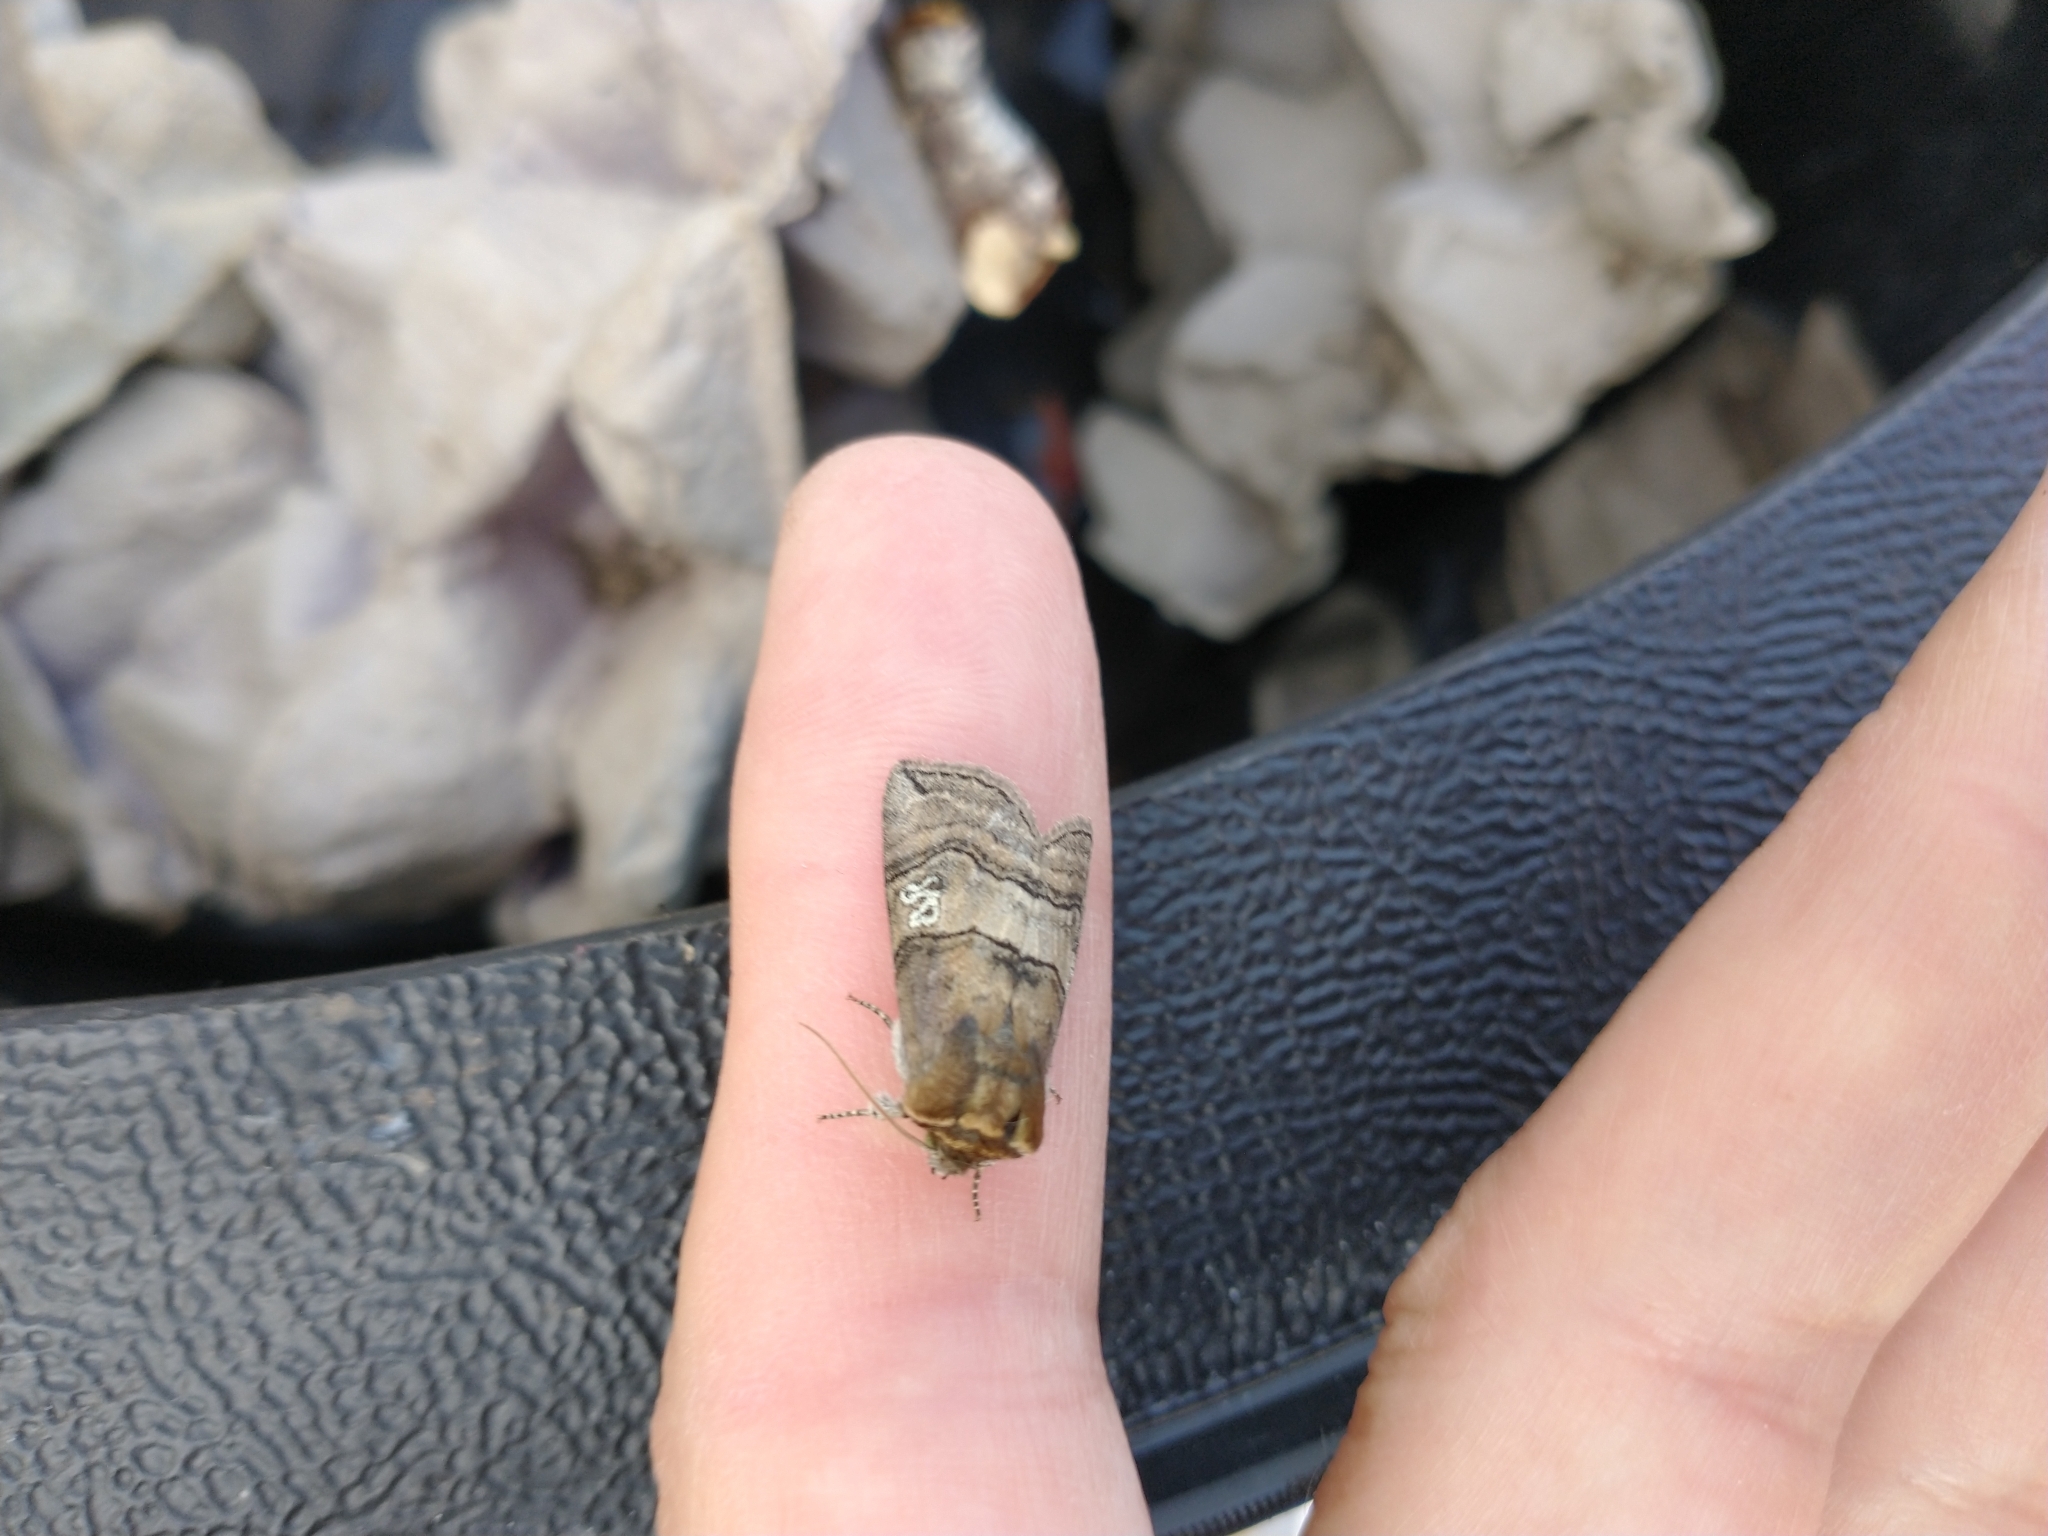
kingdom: Animalia
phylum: Arthropoda
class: Insecta
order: Lepidoptera
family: Drepanidae
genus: Tethea
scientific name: Tethea ocularis
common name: Figure of eighty
